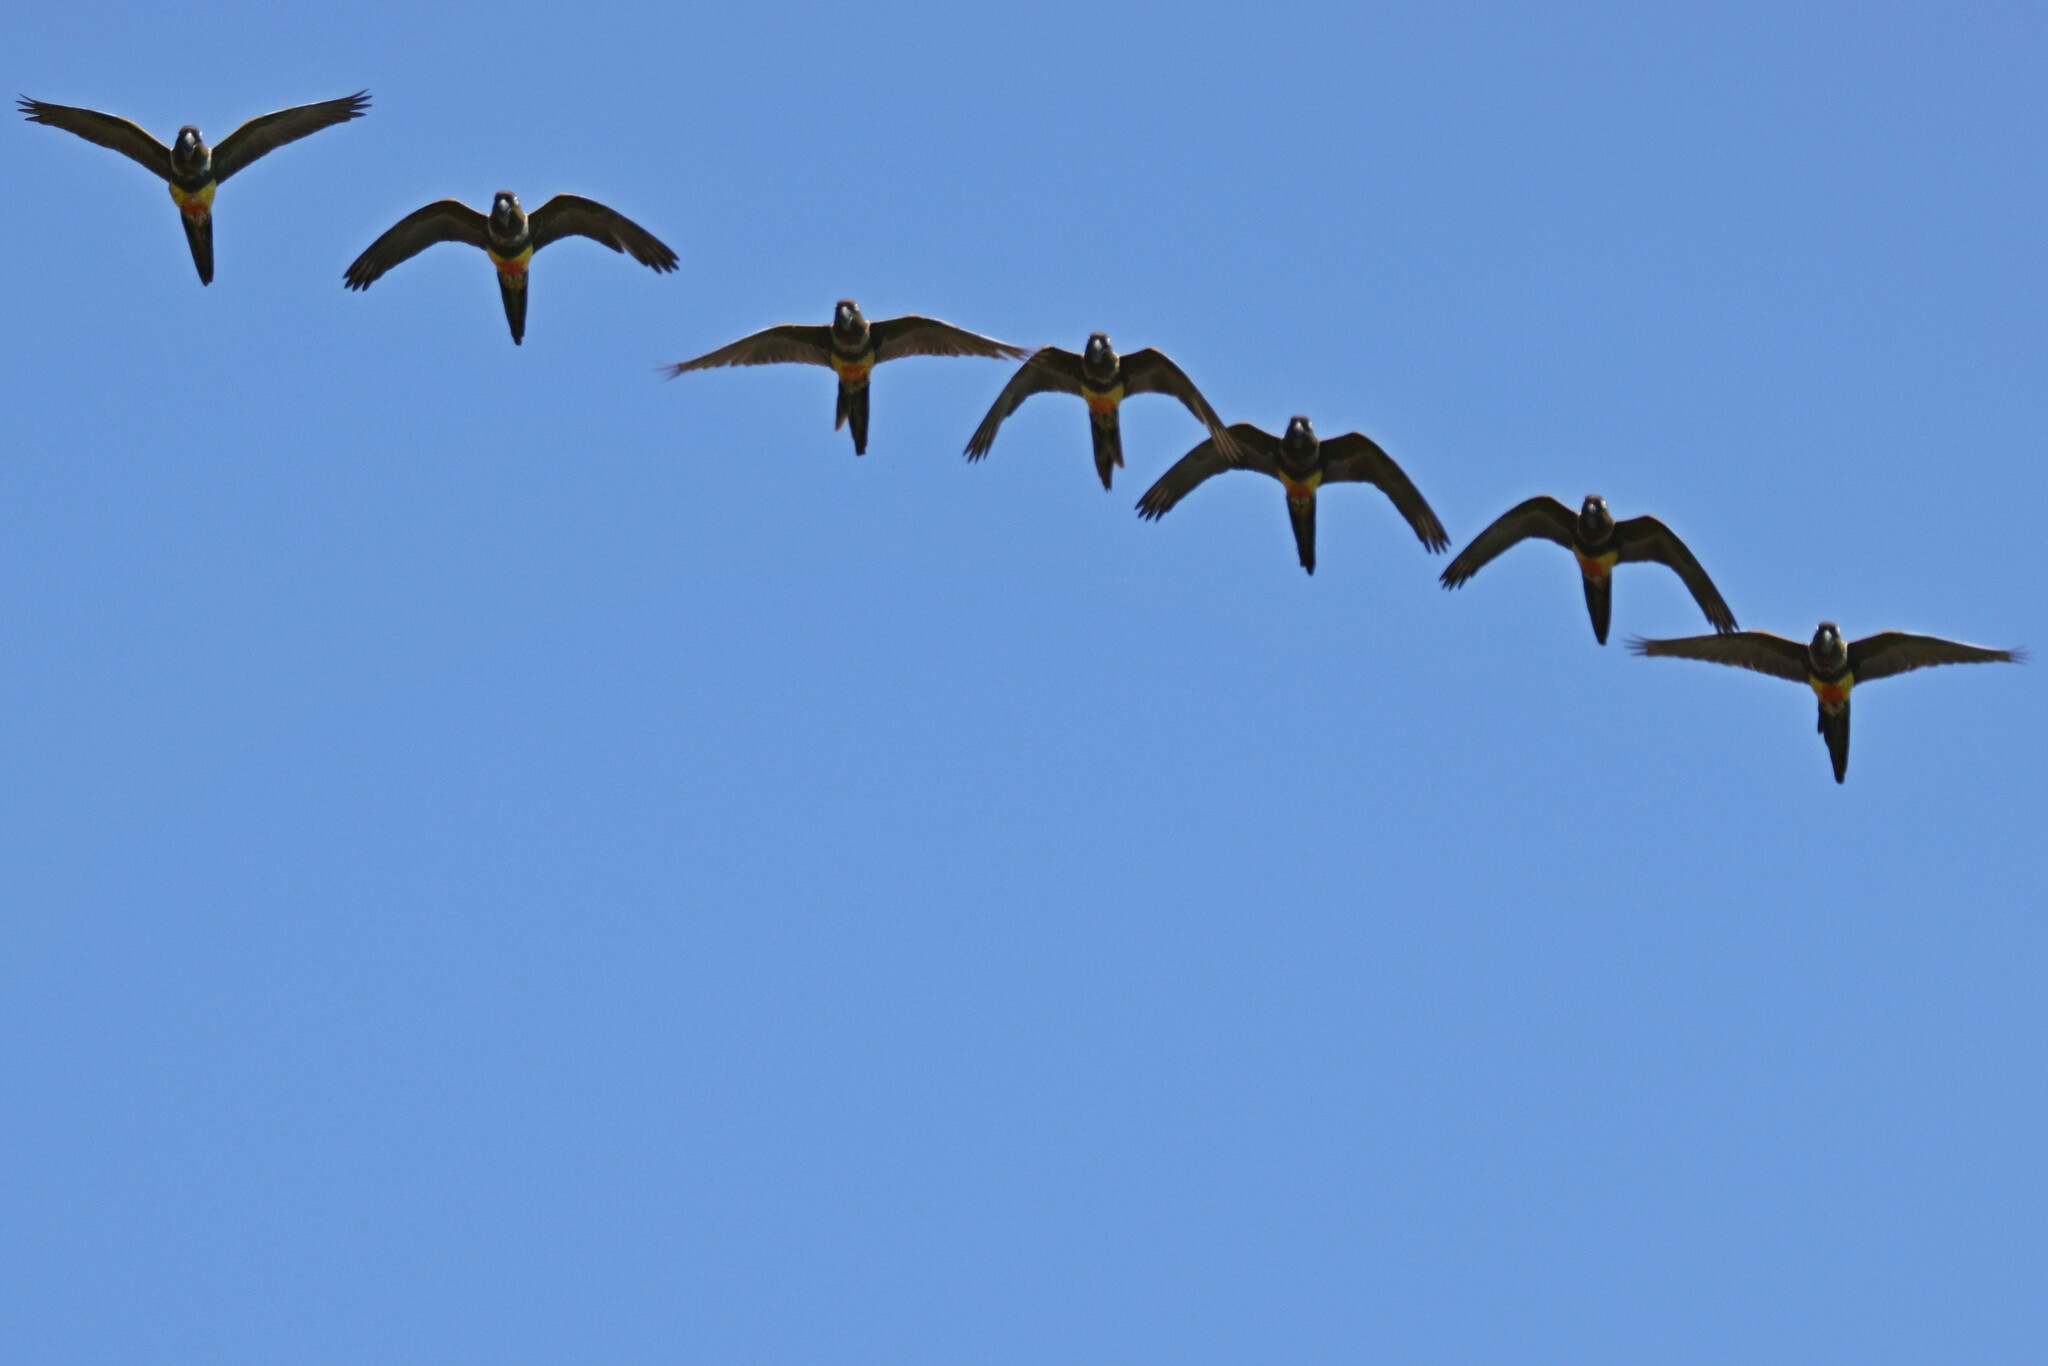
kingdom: Animalia
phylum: Chordata
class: Aves
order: Psittaciformes
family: Psittacidae
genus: Cyanoliseus
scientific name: Cyanoliseus patagonus
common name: Burrowing parrot
